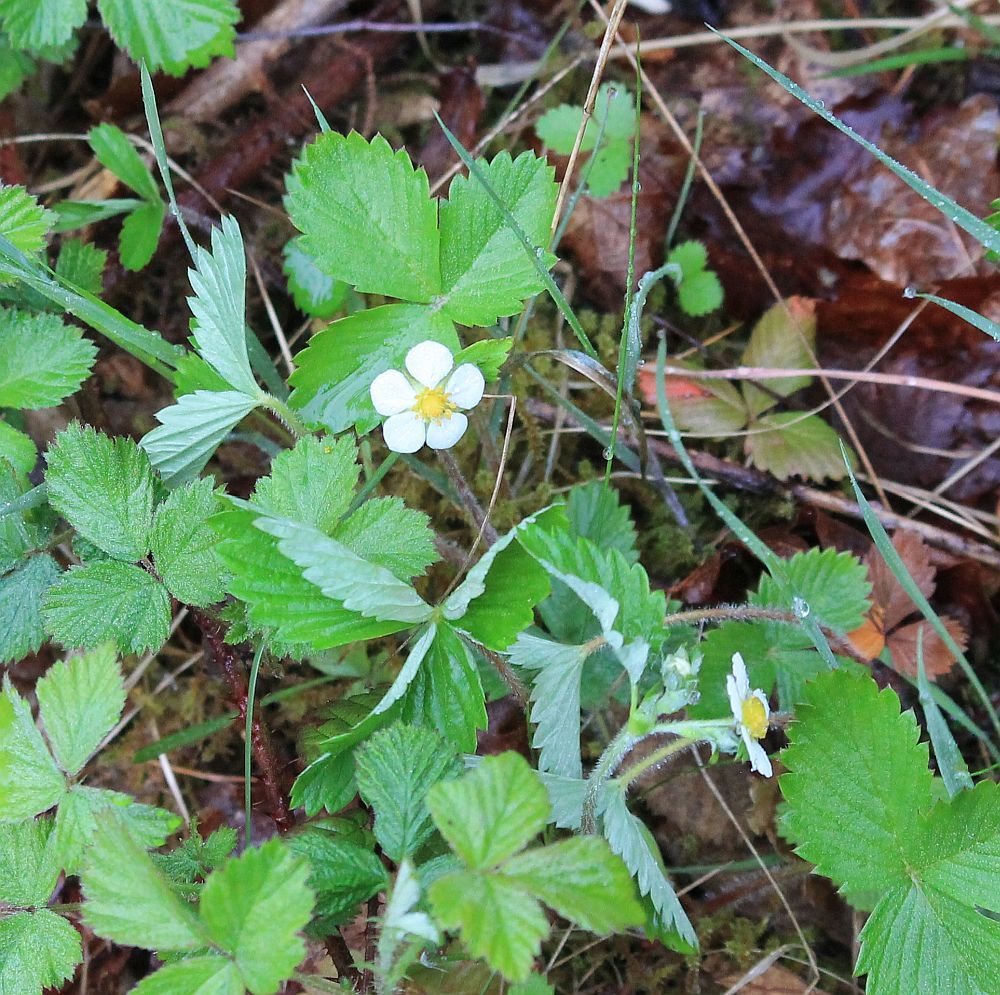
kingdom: Plantae
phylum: Tracheophyta
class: Magnoliopsida
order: Rosales
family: Rosaceae
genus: Fragaria
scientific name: Fragaria vesca
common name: Wild strawberry
